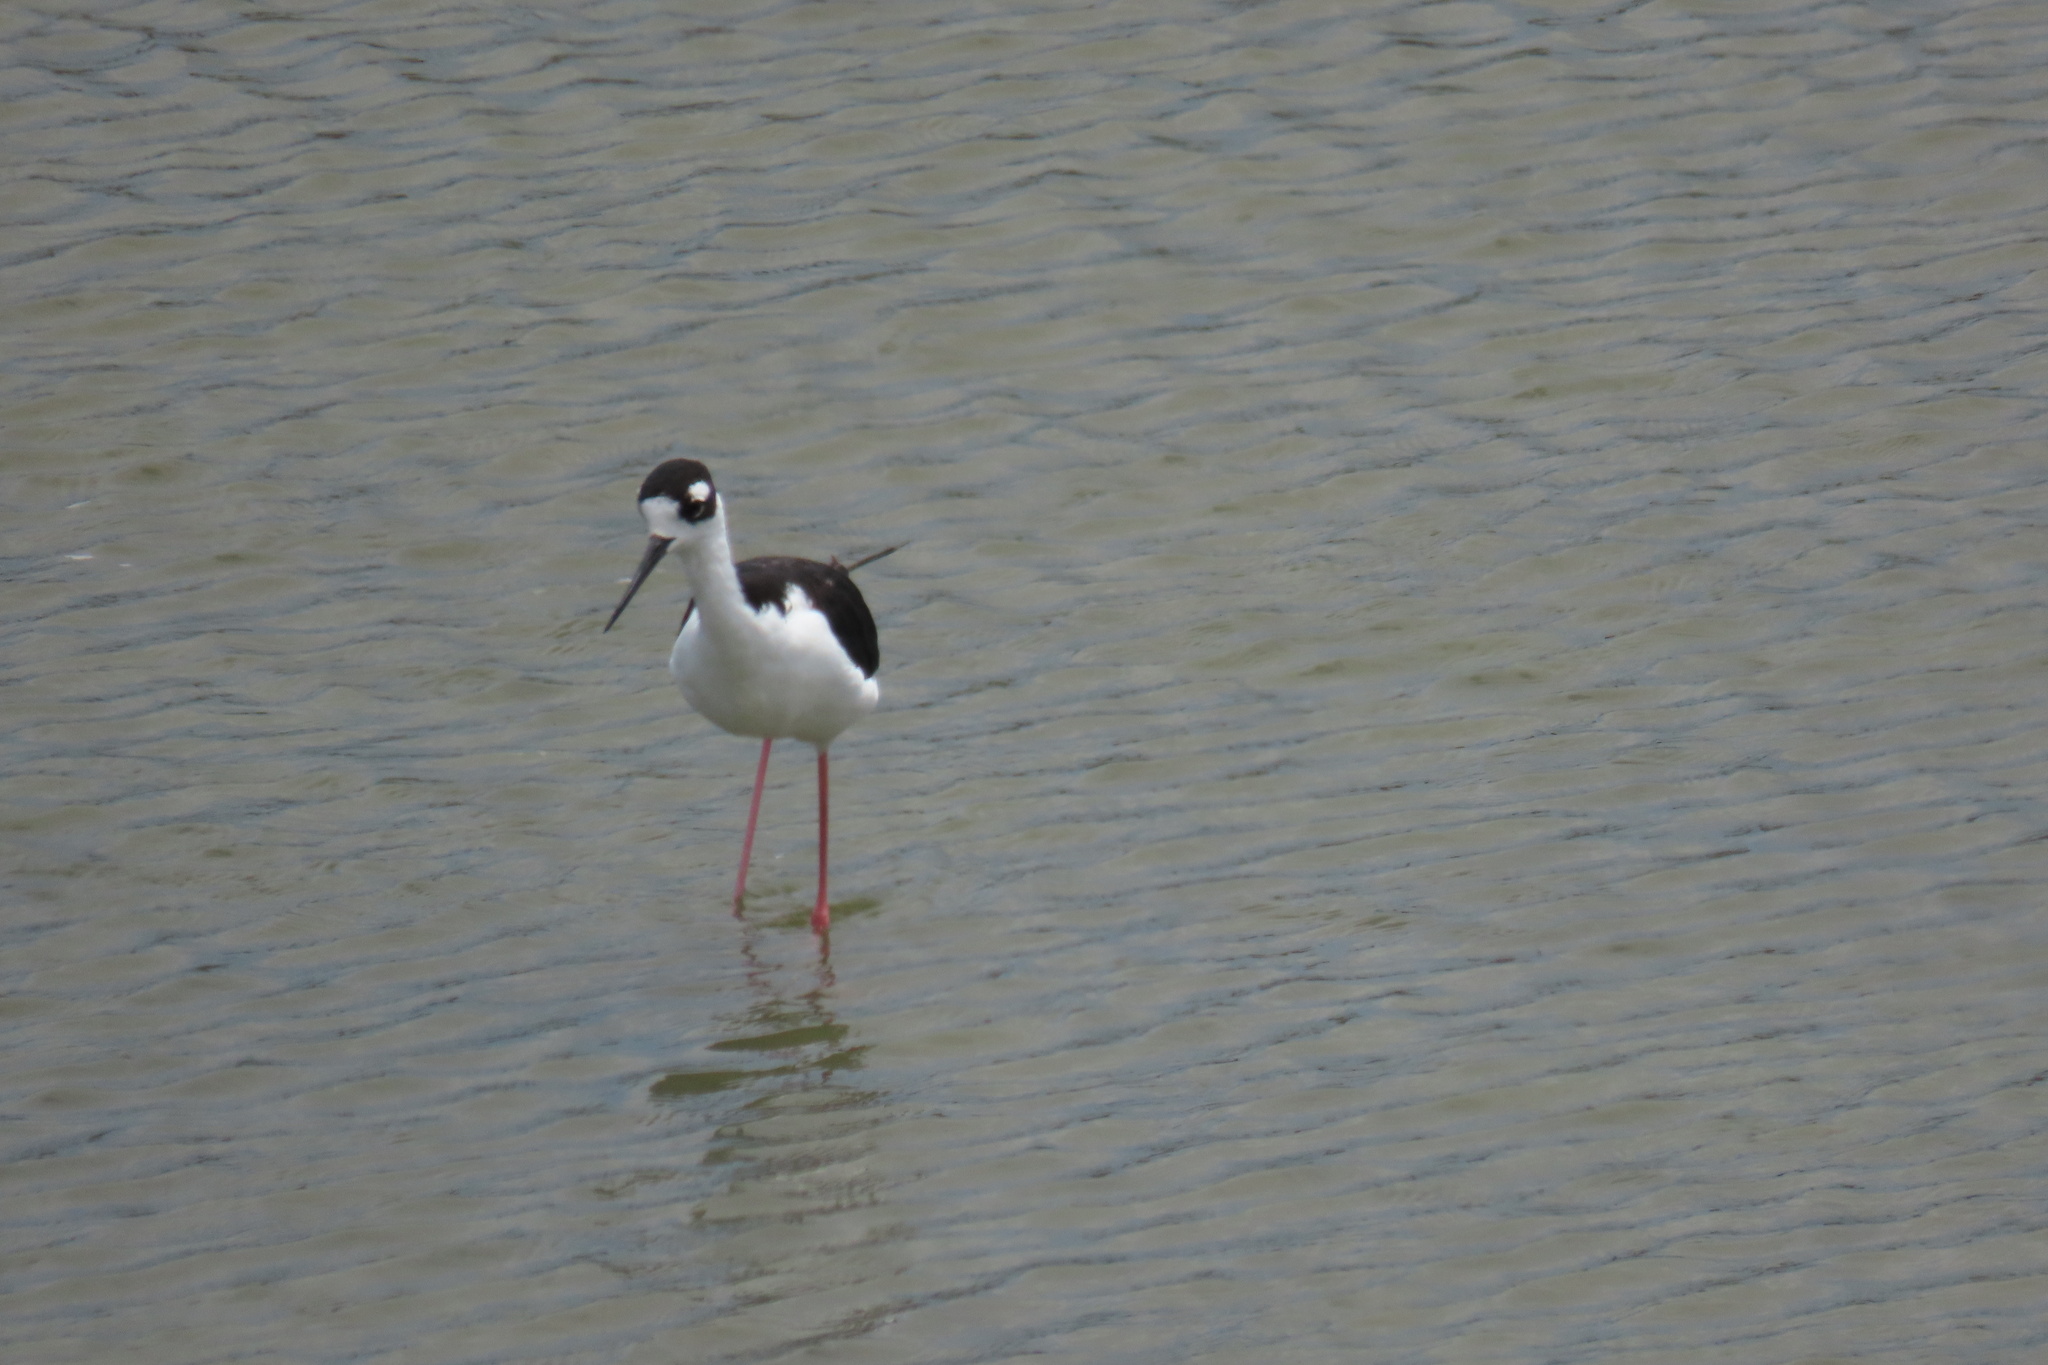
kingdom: Animalia
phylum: Chordata
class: Aves
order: Charadriiformes
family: Recurvirostridae
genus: Himantopus
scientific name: Himantopus mexicanus
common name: Black-necked stilt
